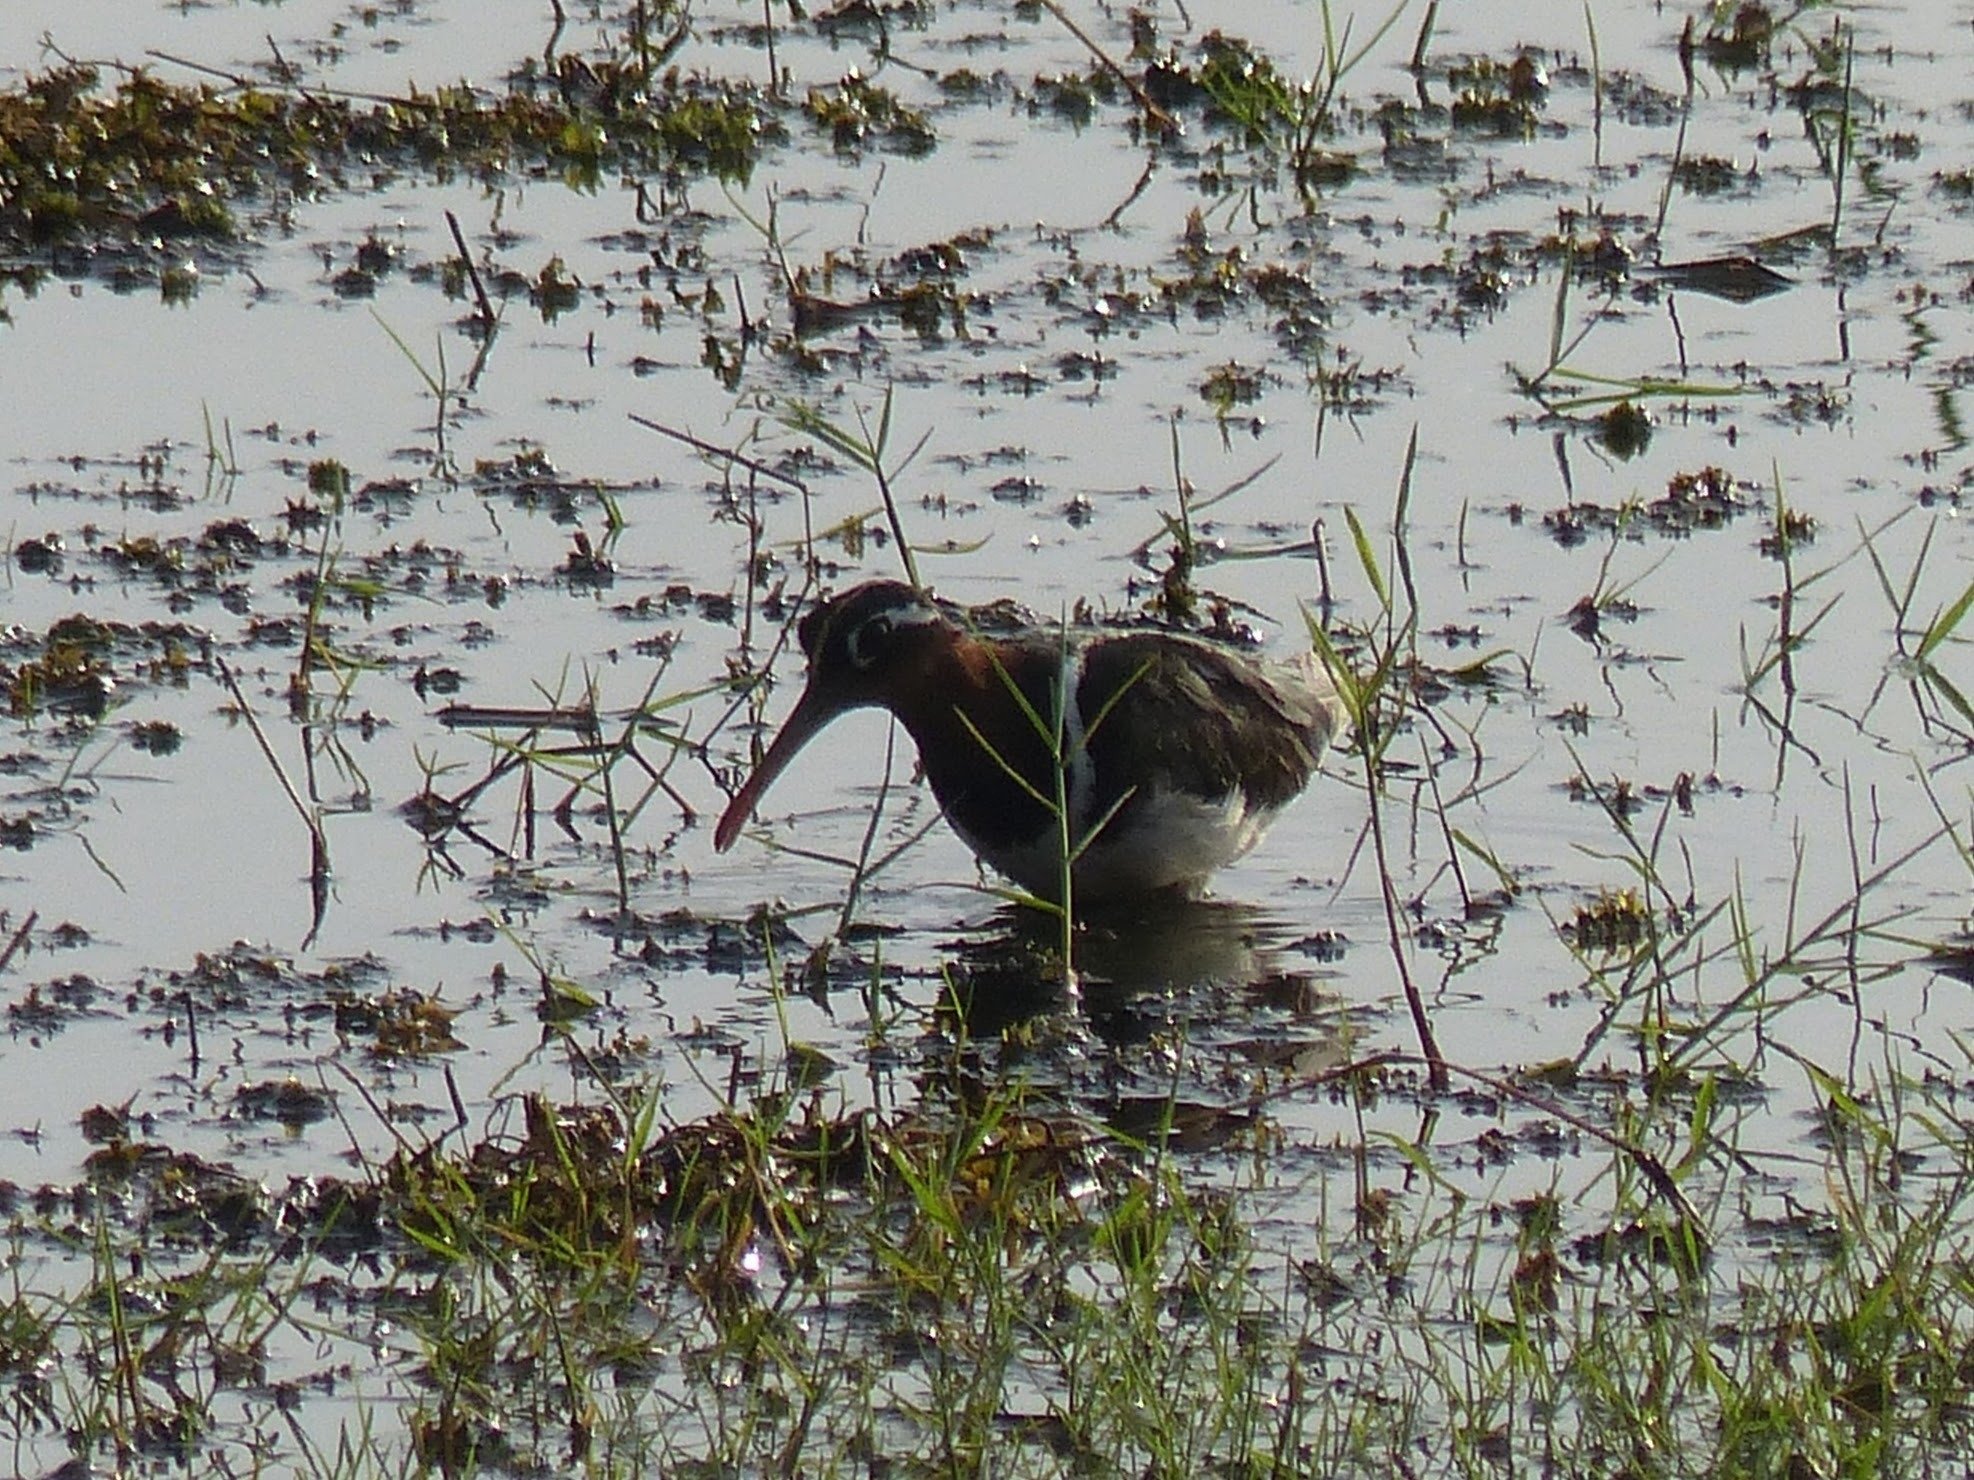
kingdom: Animalia
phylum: Chordata
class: Aves
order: Charadriiformes
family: Rostratulidae
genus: Rostratula
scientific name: Rostratula benghalensis
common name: Greater painted-snipe
